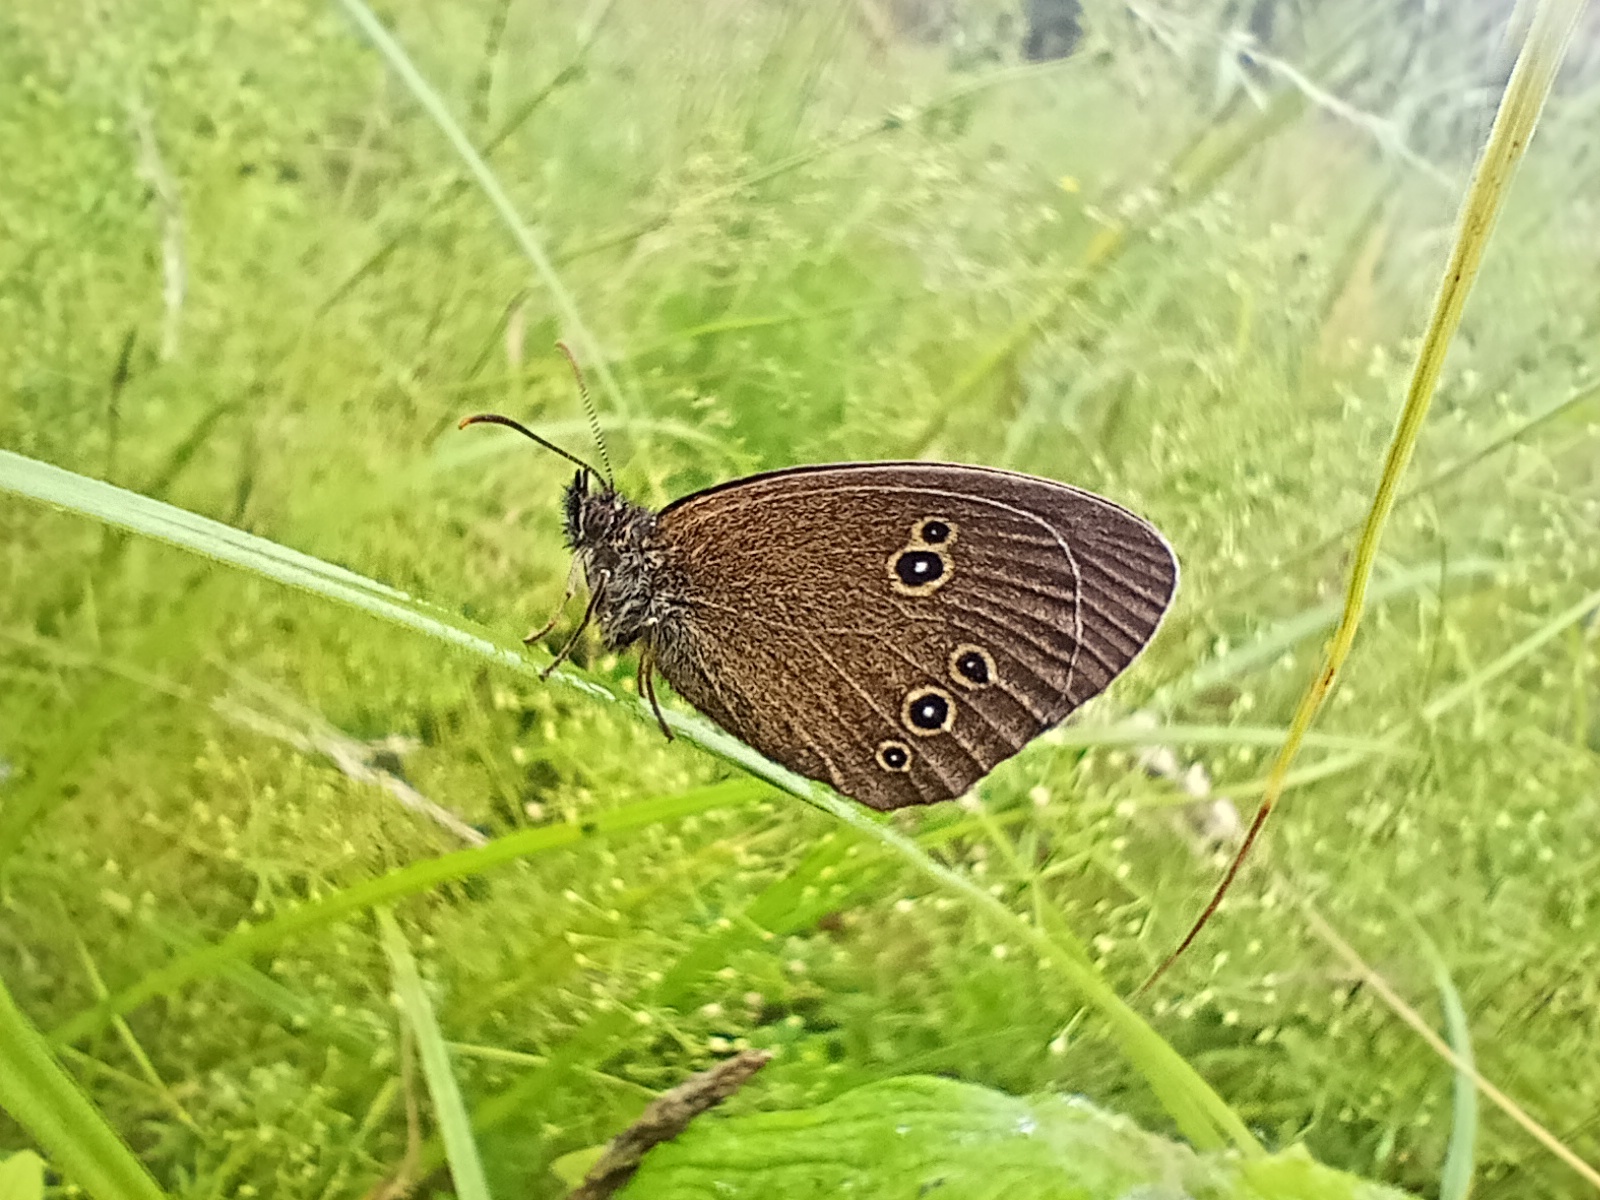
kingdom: Animalia
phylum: Arthropoda
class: Insecta
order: Lepidoptera
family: Nymphalidae
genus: Aphantopus
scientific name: Aphantopus hyperantus
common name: Ringlet
